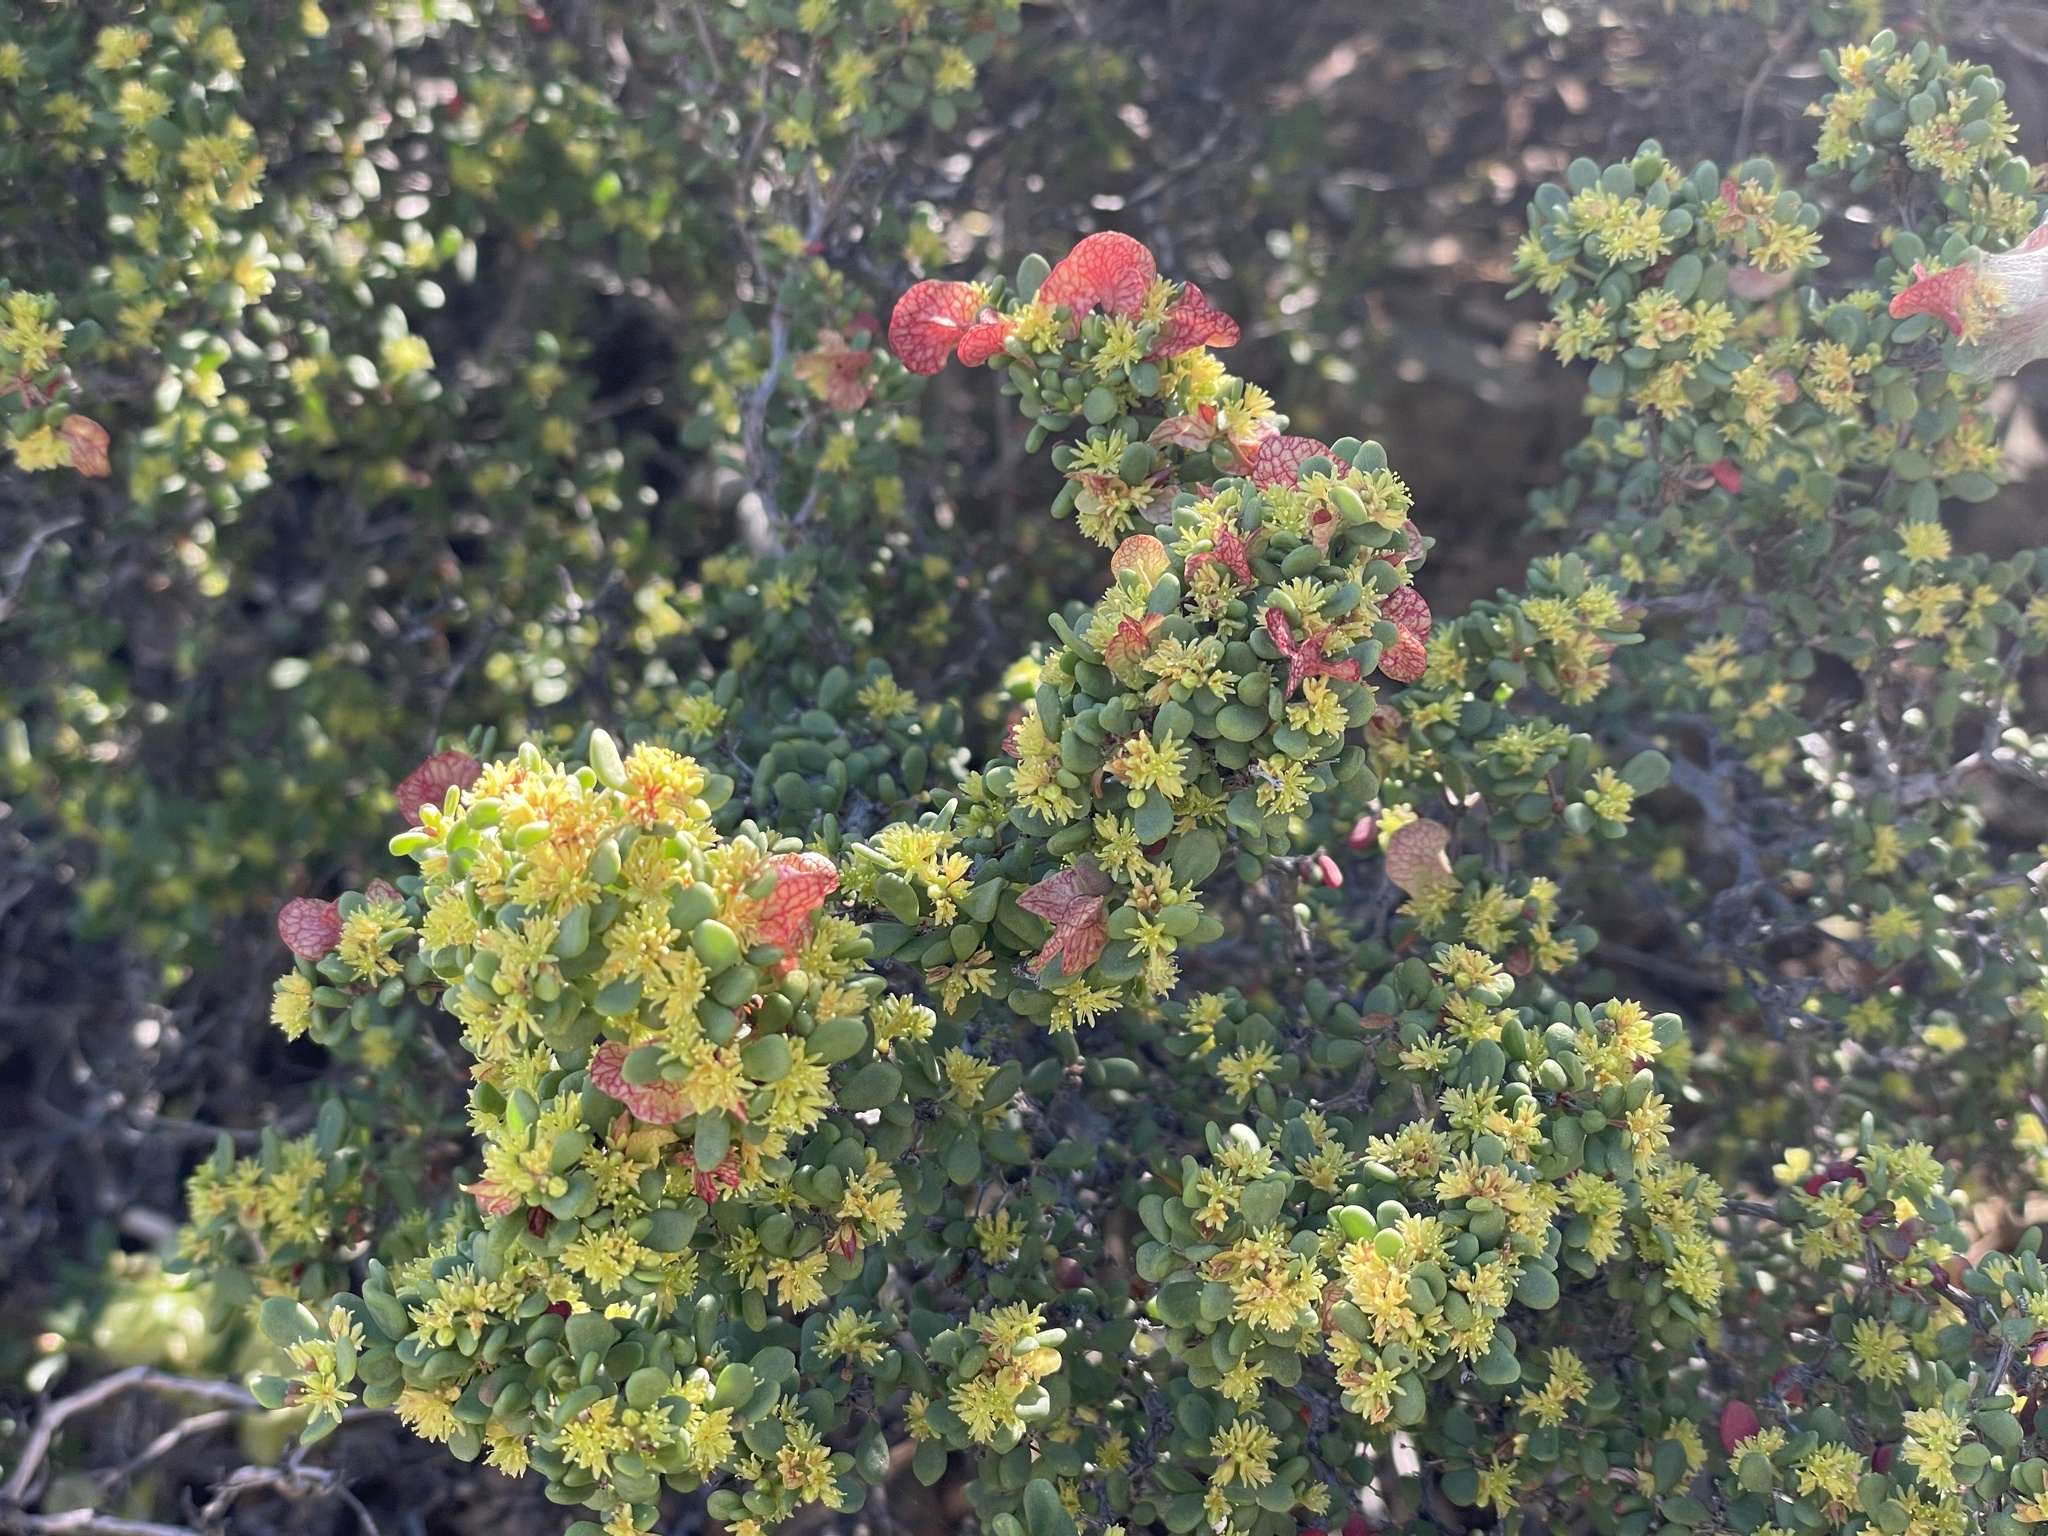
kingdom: Plantae
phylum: Tracheophyta
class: Magnoliopsida
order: Caryophyllales
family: Polygonaceae
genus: Harfordia
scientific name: Harfordia macroptera
